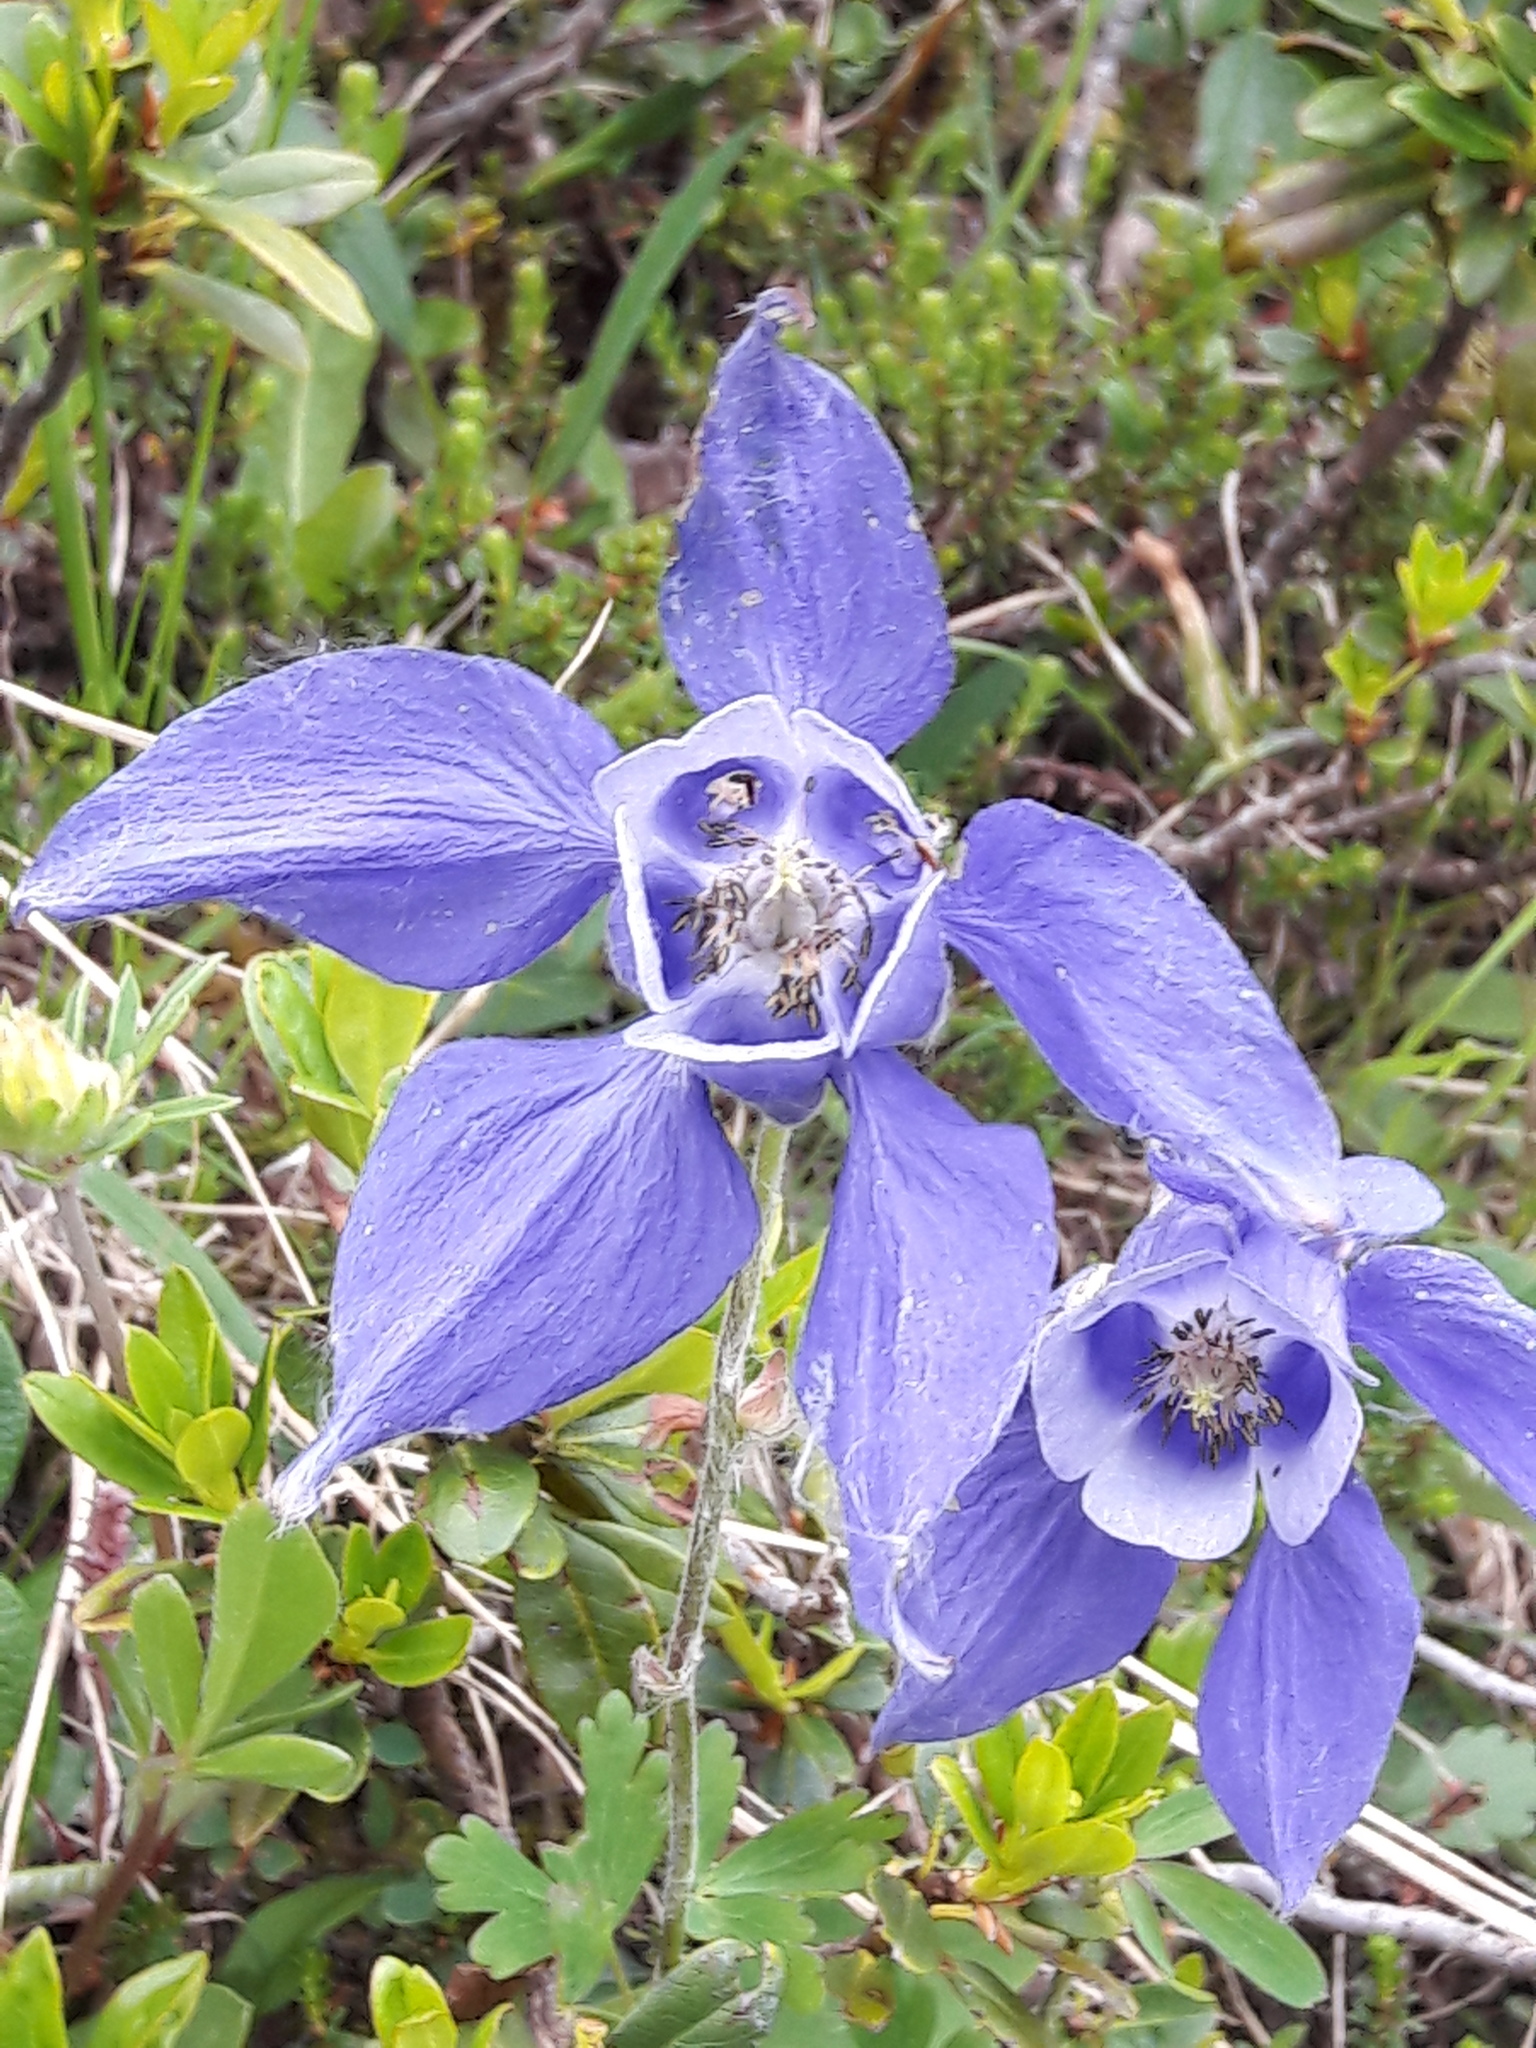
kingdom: Plantae
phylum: Tracheophyta
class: Magnoliopsida
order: Ranunculales
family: Ranunculaceae
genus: Aquilegia
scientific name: Aquilegia alpina
